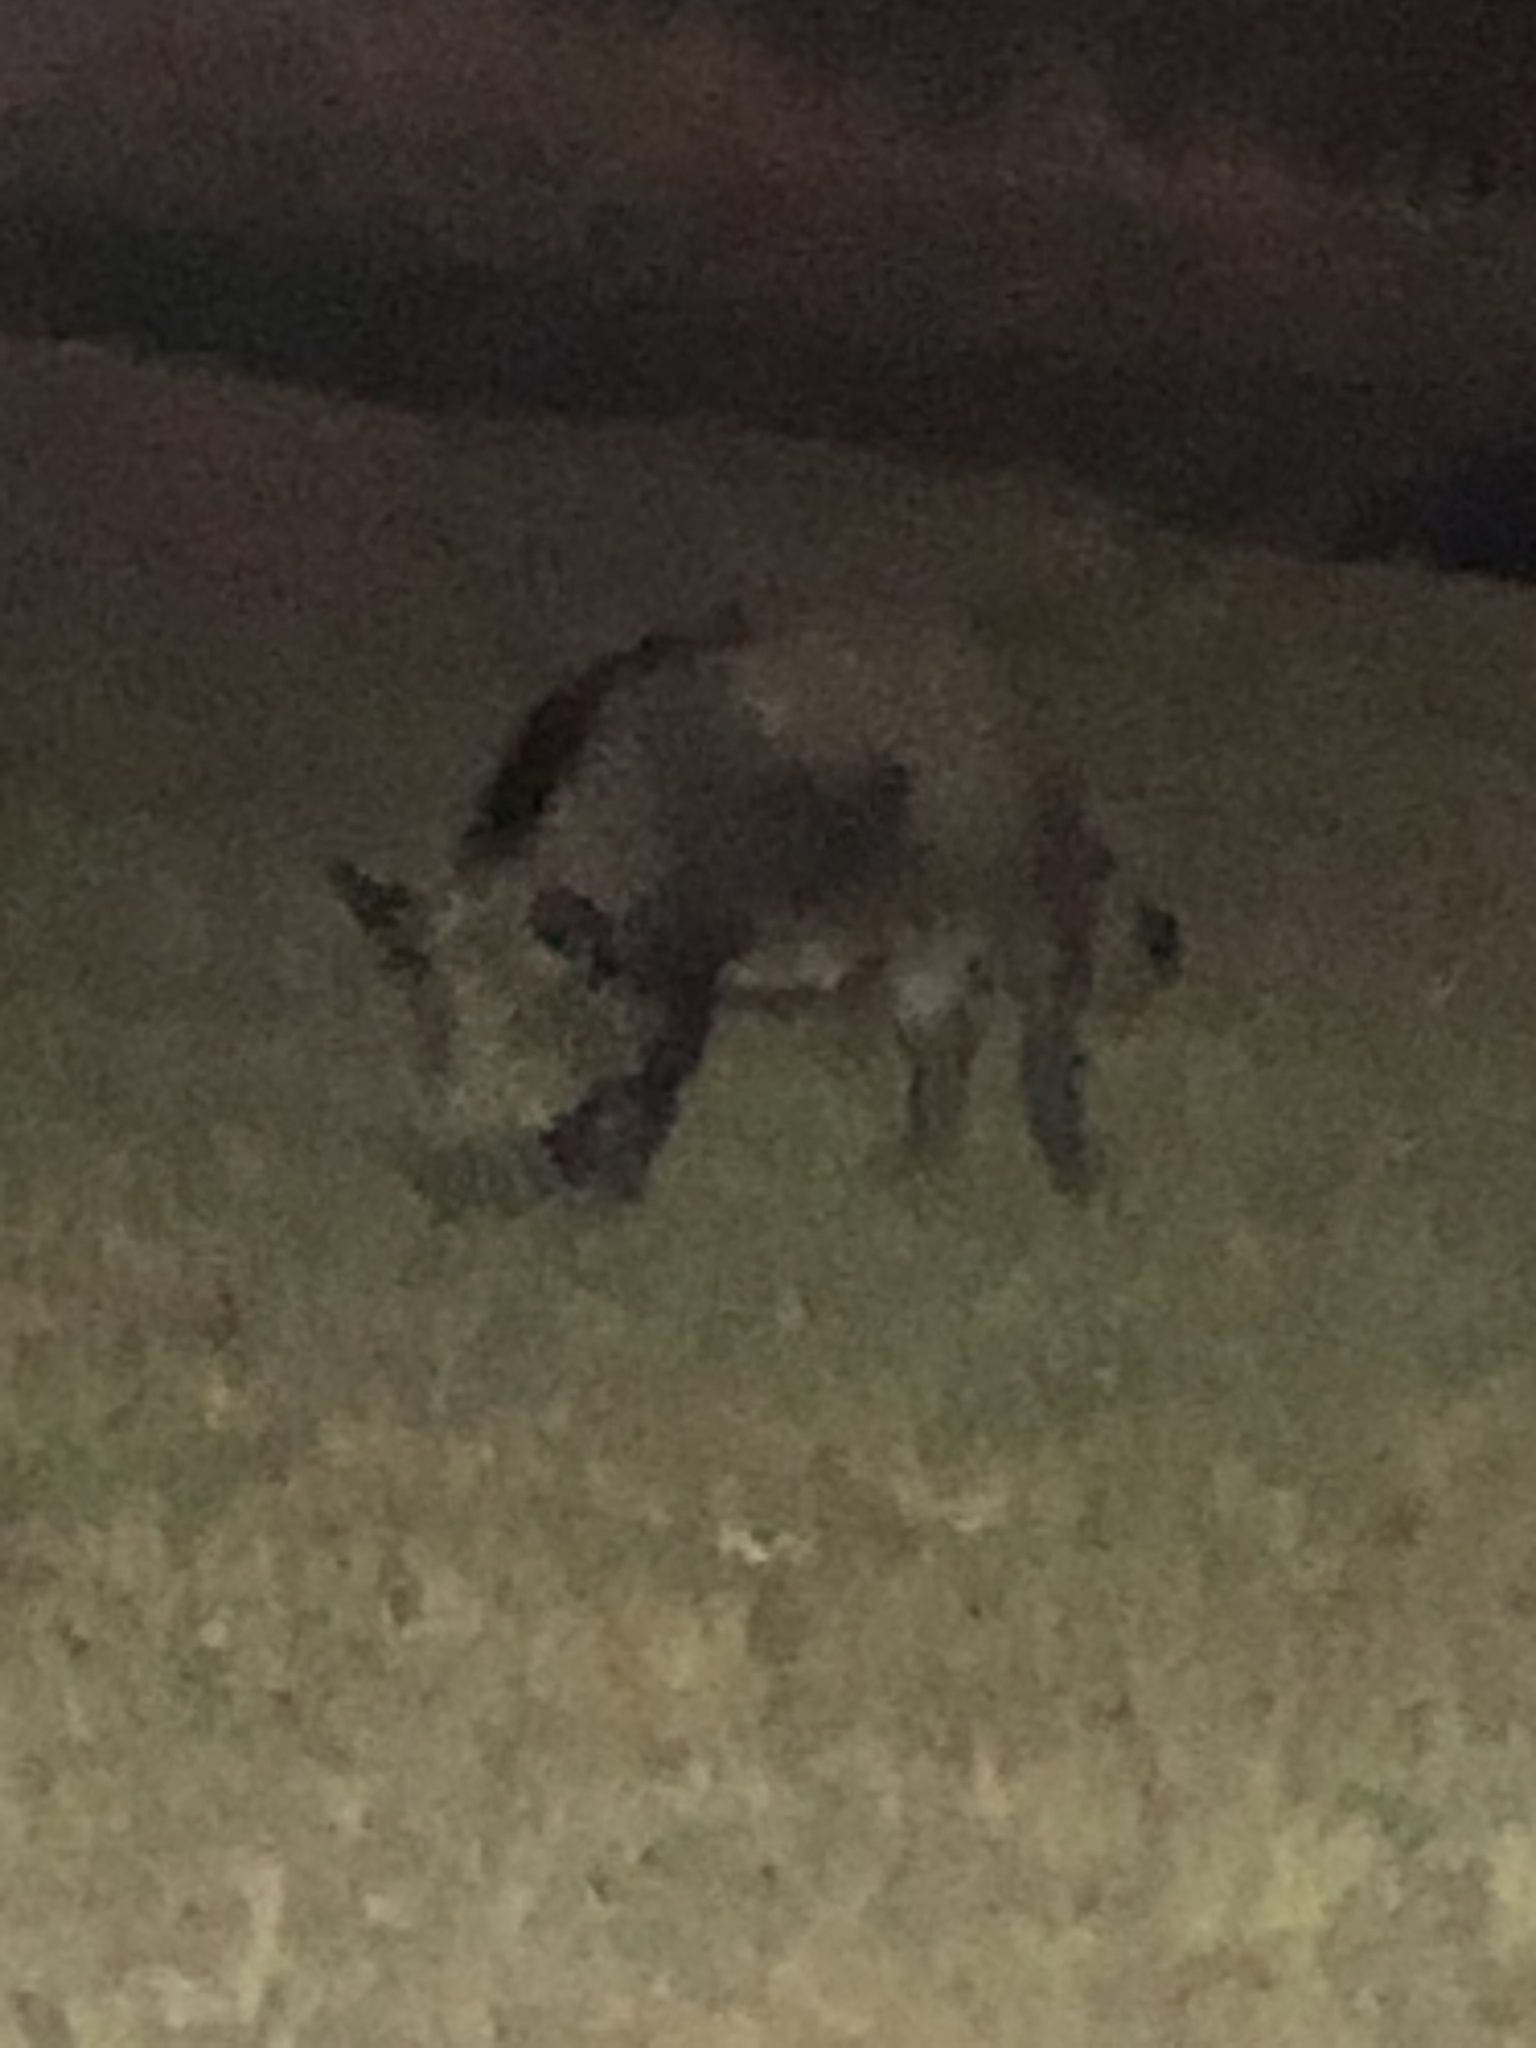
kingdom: Animalia
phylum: Chordata
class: Mammalia
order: Artiodactyla
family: Suidae
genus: Sus
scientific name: Sus scrofa
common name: Wild boar
